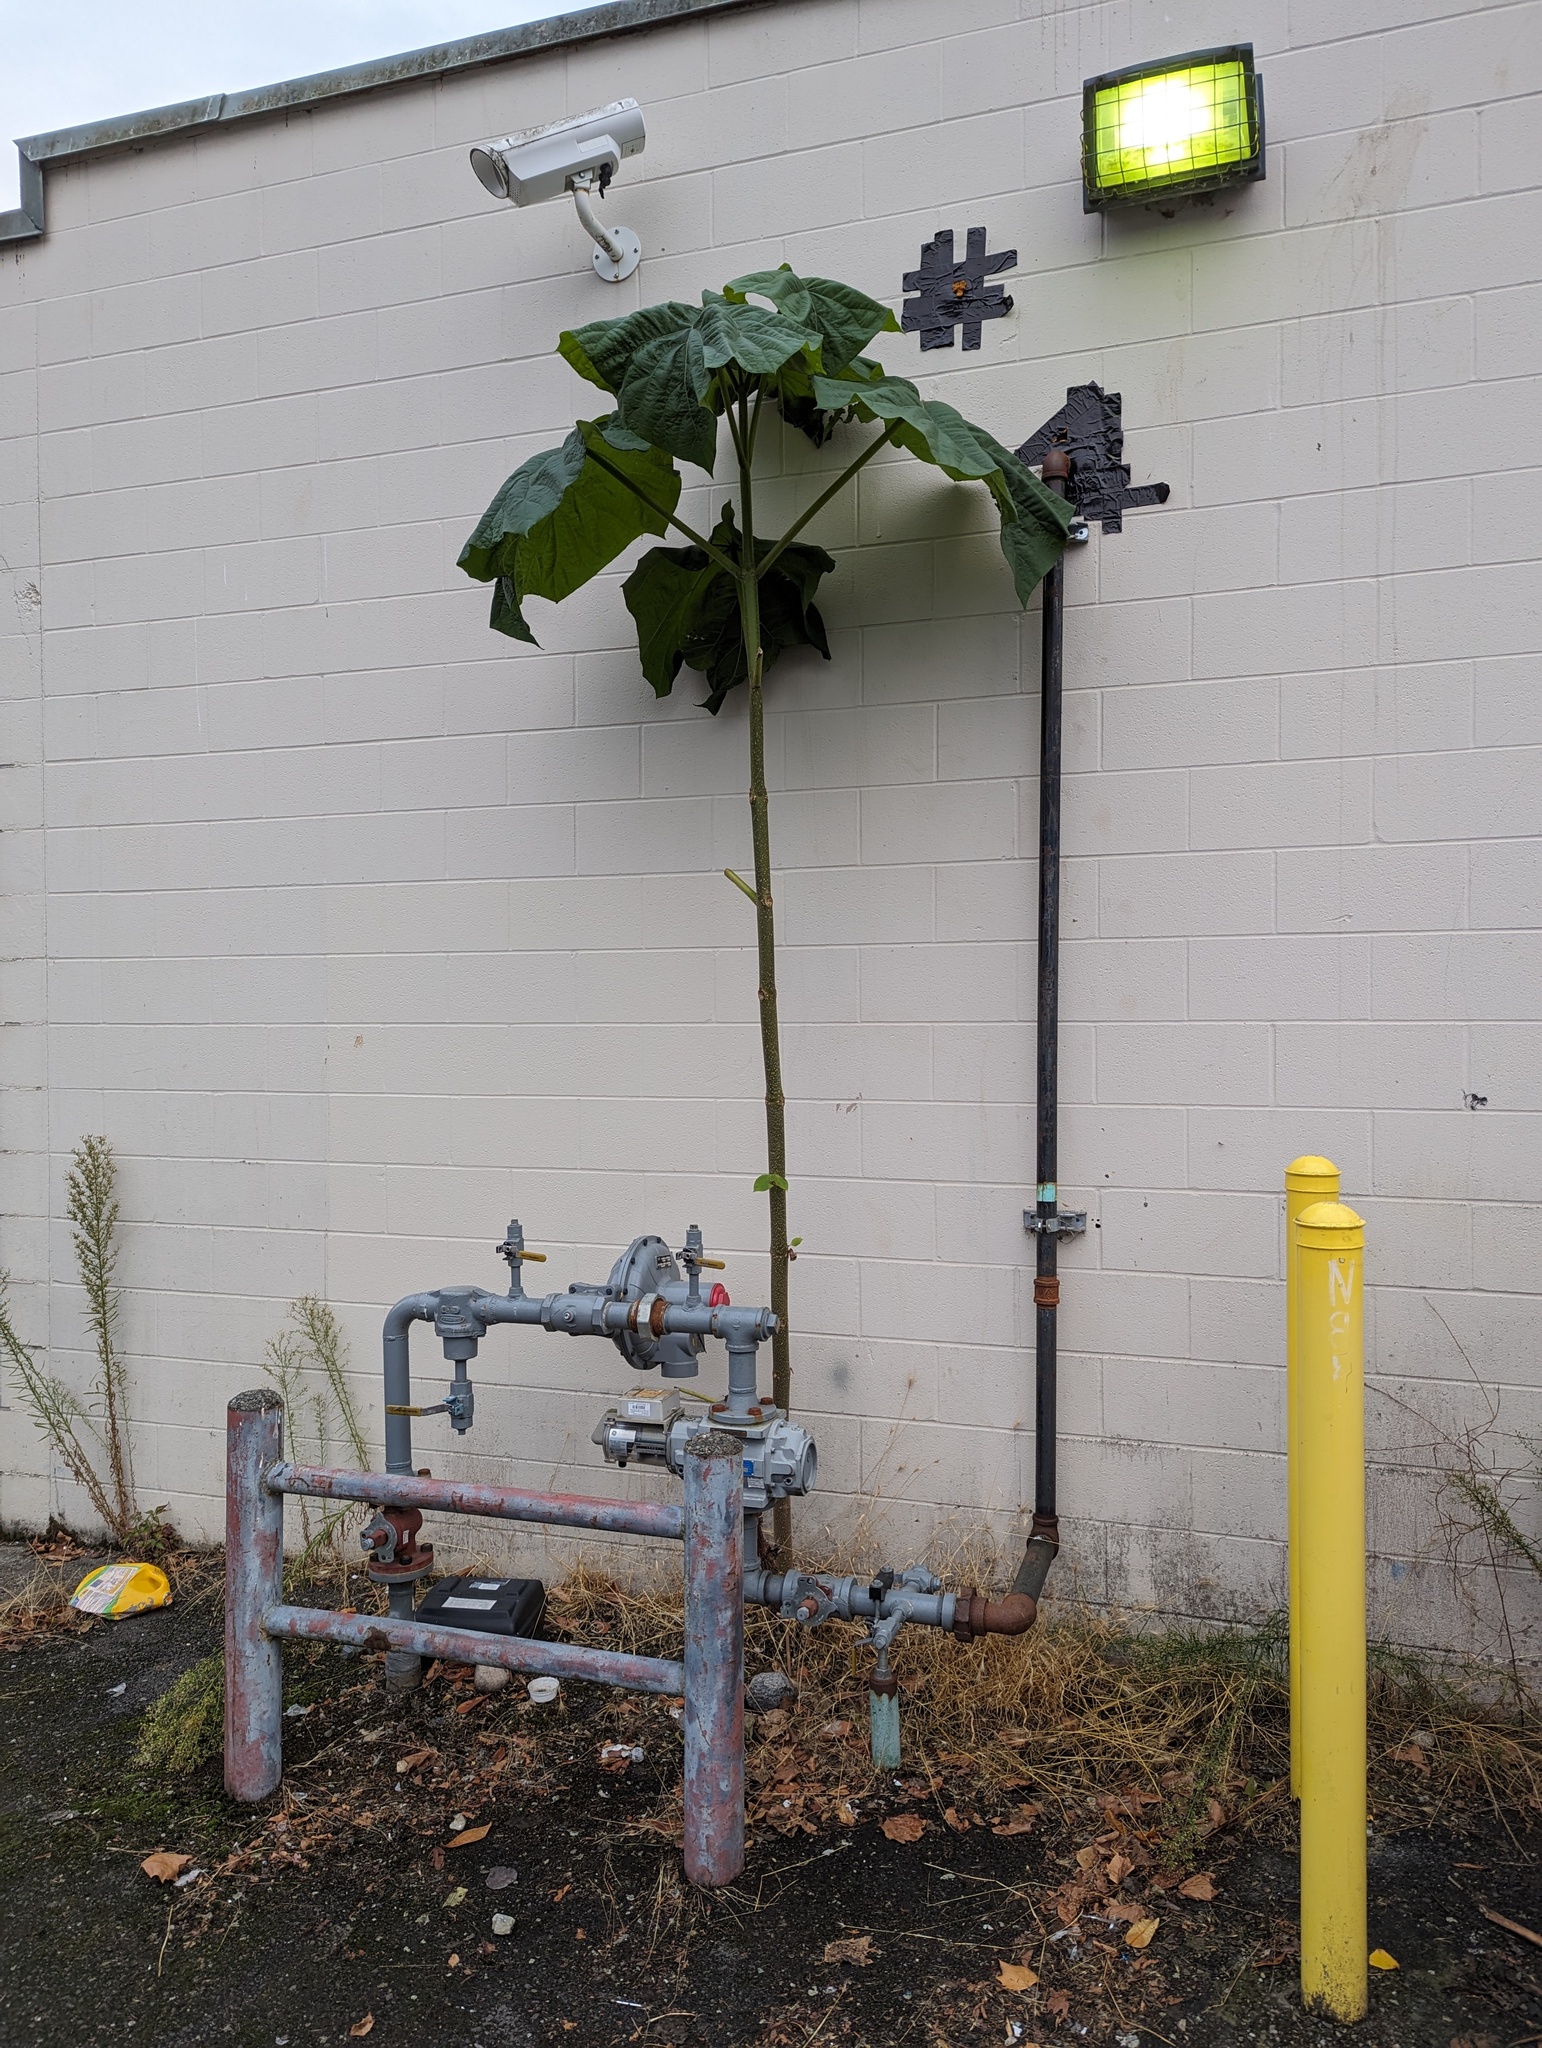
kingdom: Plantae
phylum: Tracheophyta
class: Magnoliopsida
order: Lamiales
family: Paulowniaceae
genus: Paulownia
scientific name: Paulownia tomentosa
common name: Foxglove-tree
